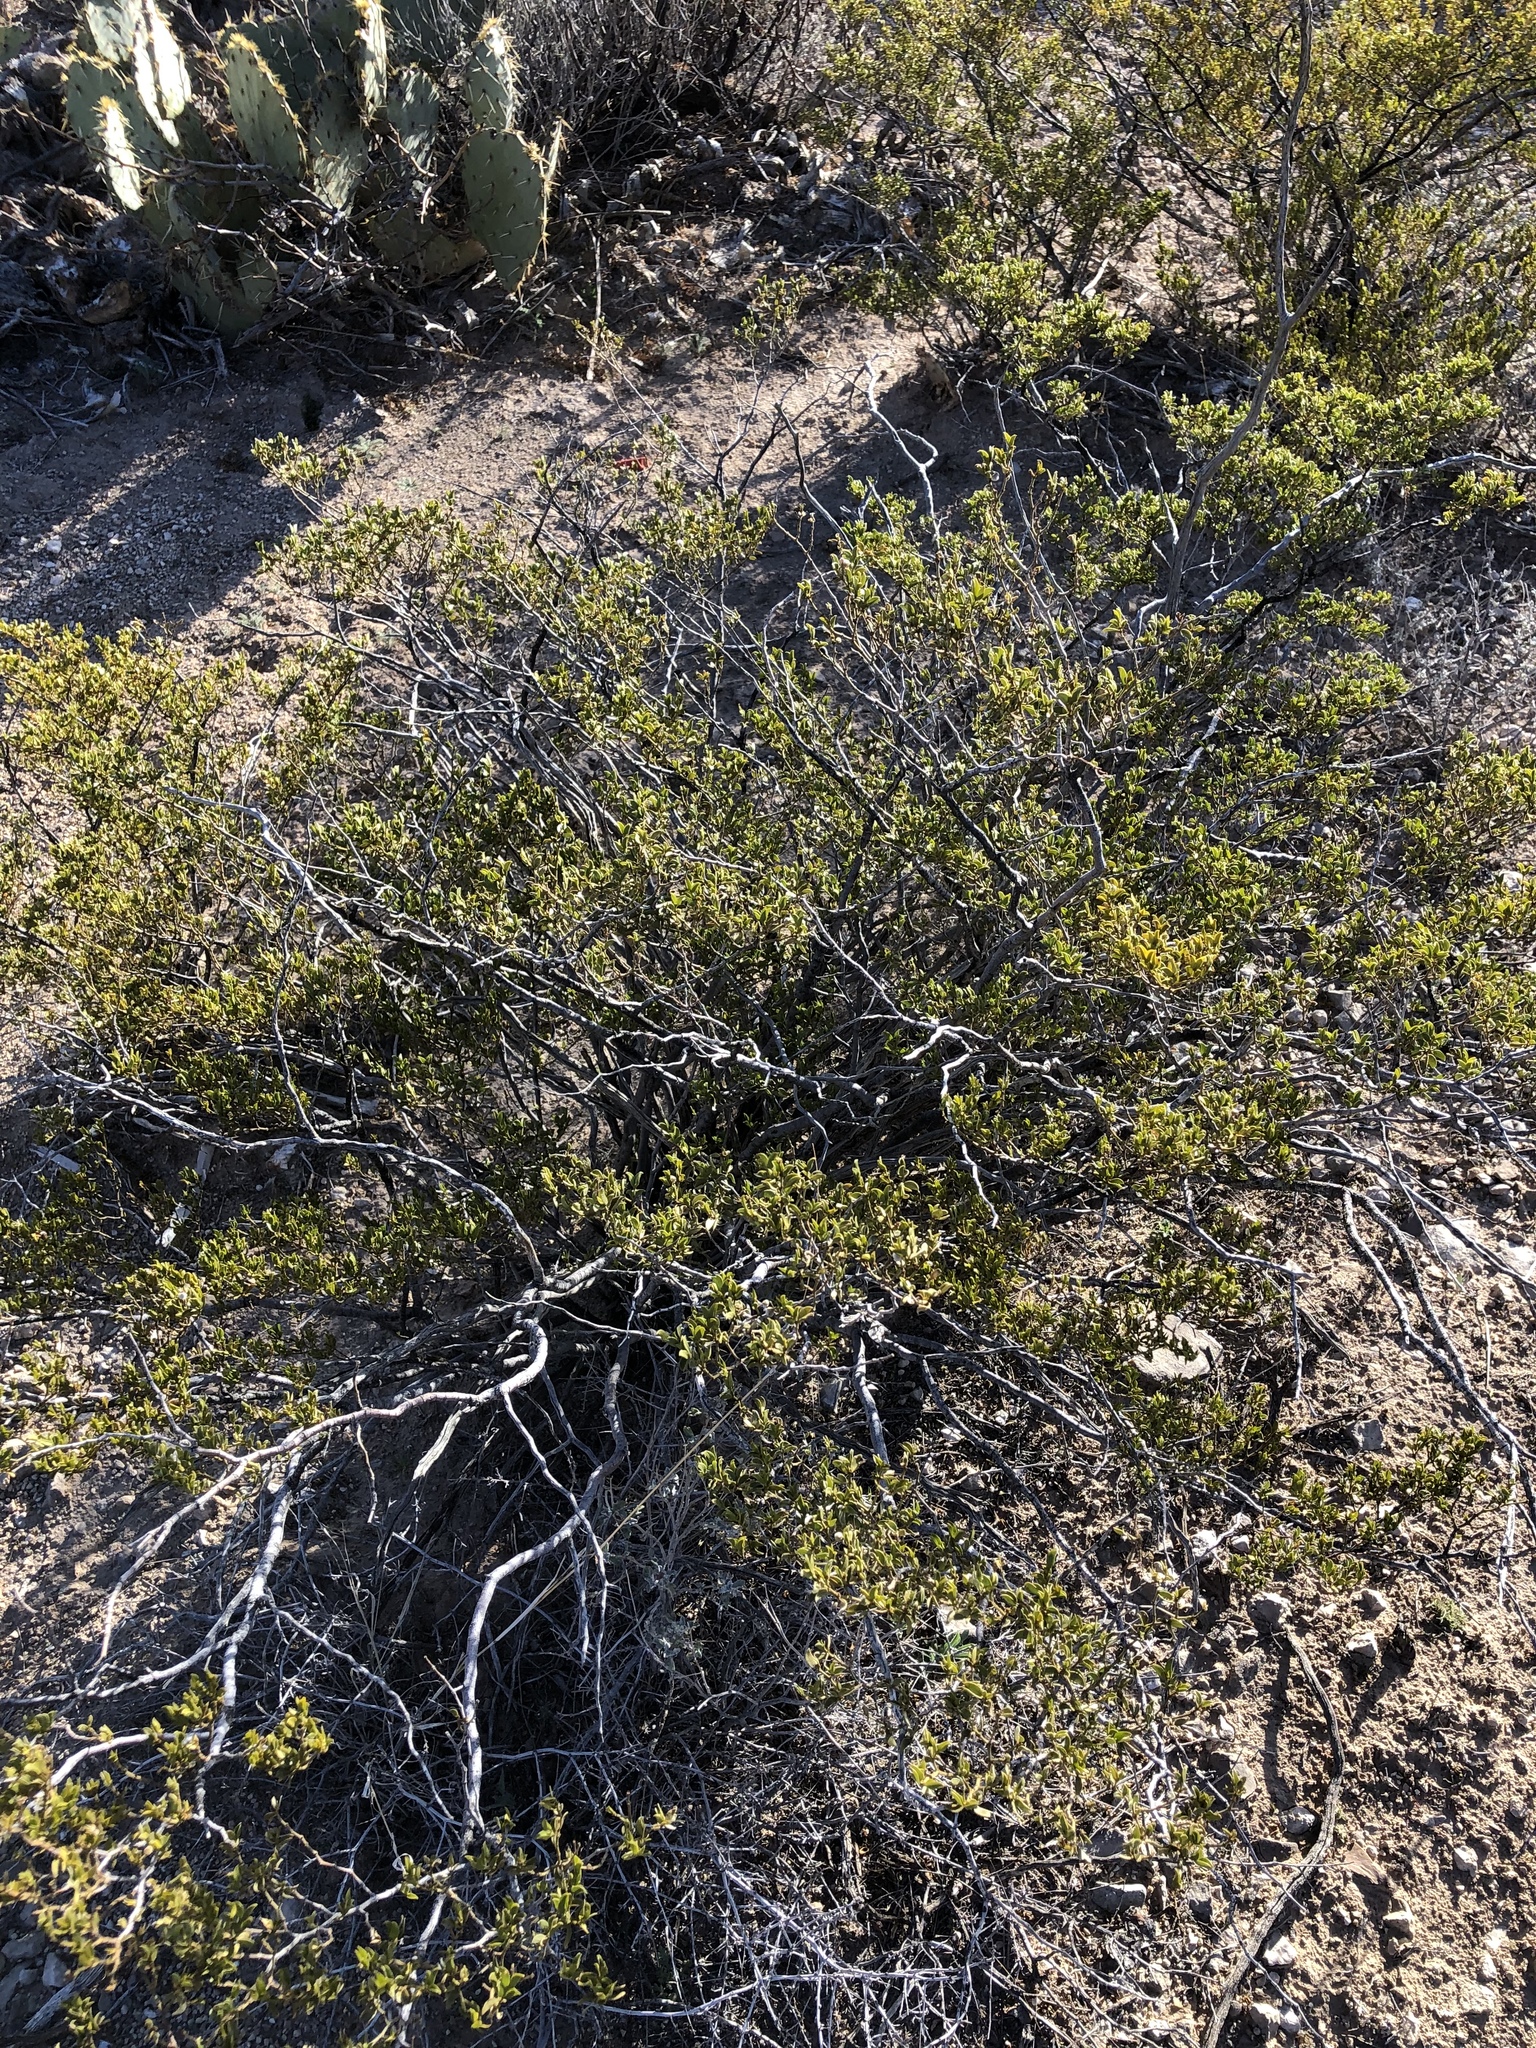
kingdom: Plantae
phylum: Tracheophyta
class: Magnoliopsida
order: Zygophyllales
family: Zygophyllaceae
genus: Larrea
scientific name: Larrea tridentata
